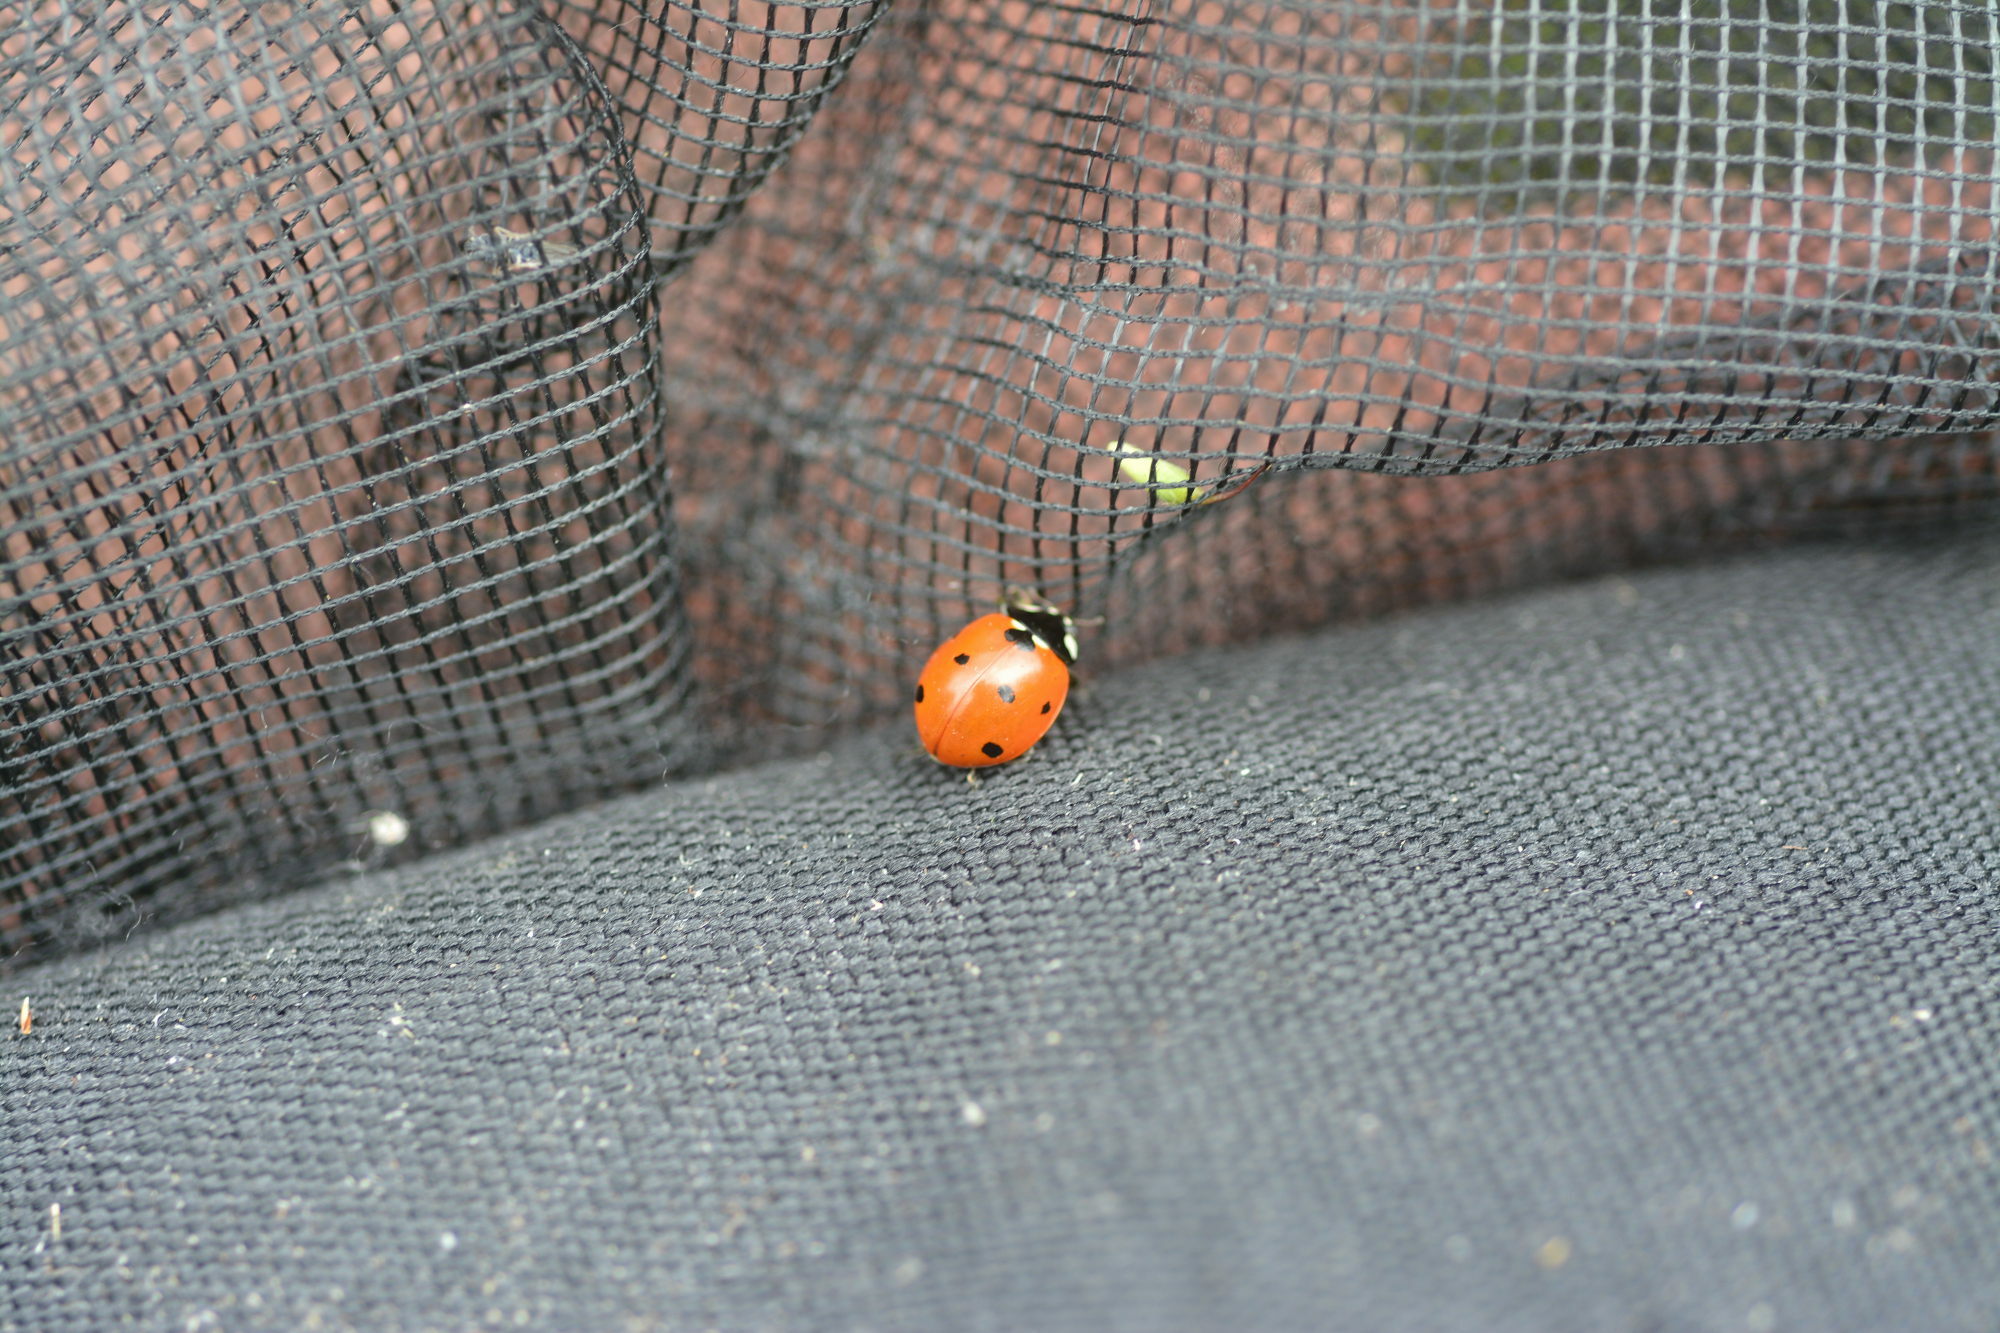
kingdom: Animalia
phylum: Arthropoda
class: Insecta
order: Coleoptera
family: Coccinellidae
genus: Coccinella
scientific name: Coccinella septempunctata
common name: Sevenspotted lady beetle
